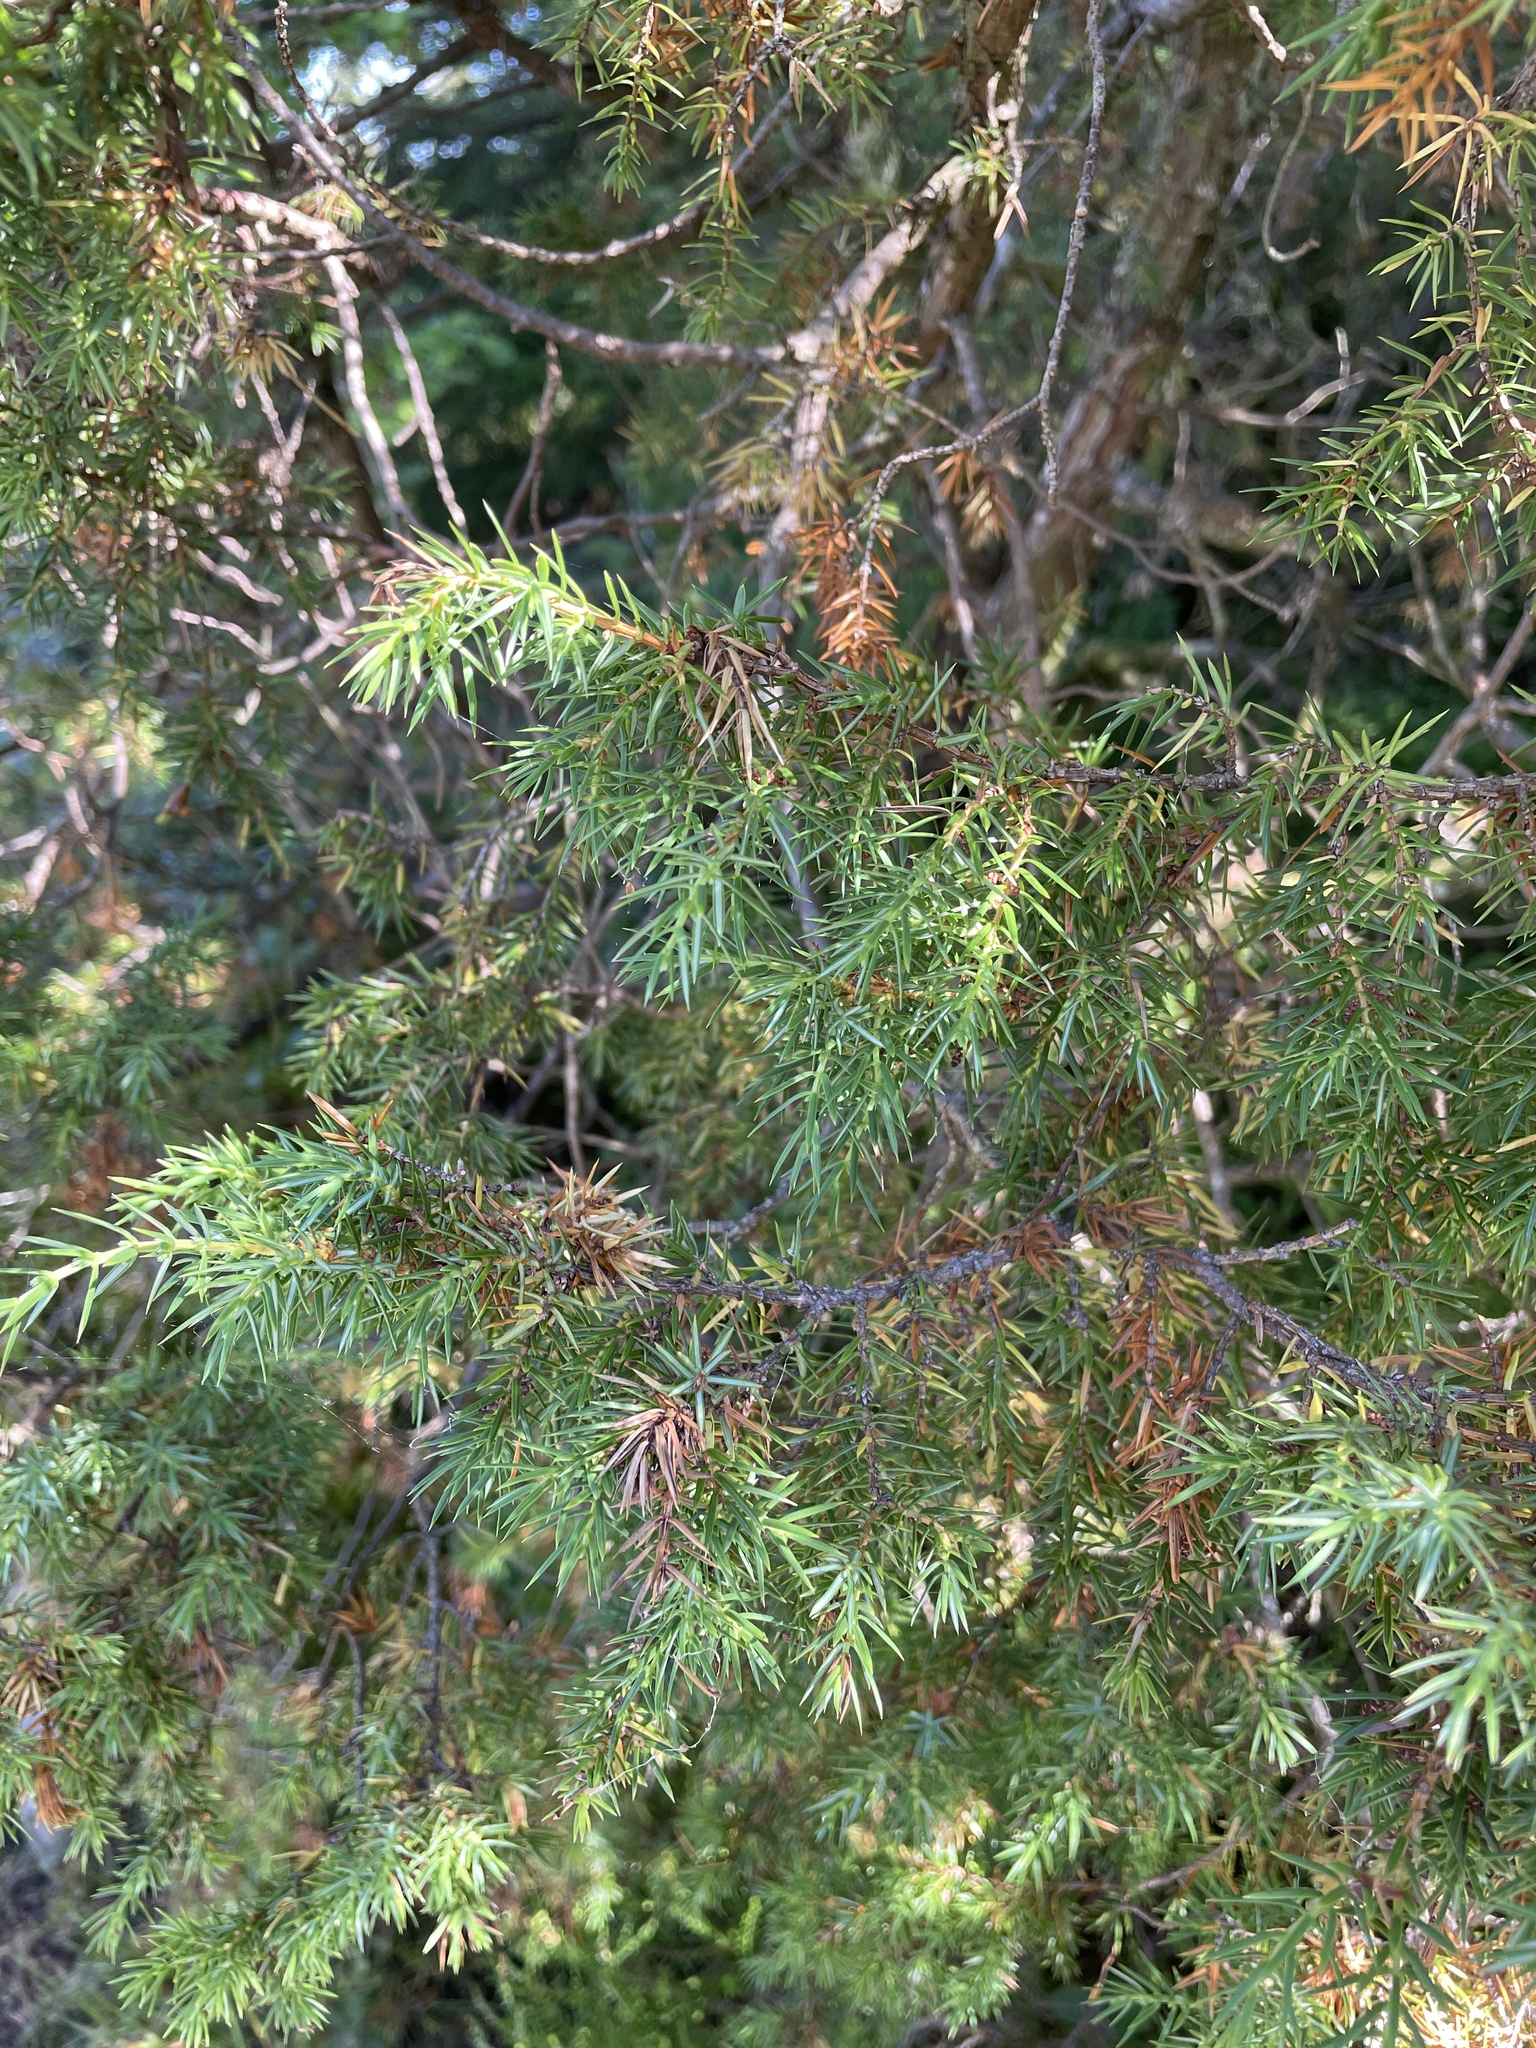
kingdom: Plantae
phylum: Tracheophyta
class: Pinopsida
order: Pinales
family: Cupressaceae
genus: Juniperus
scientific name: Juniperus communis
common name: Common juniper
